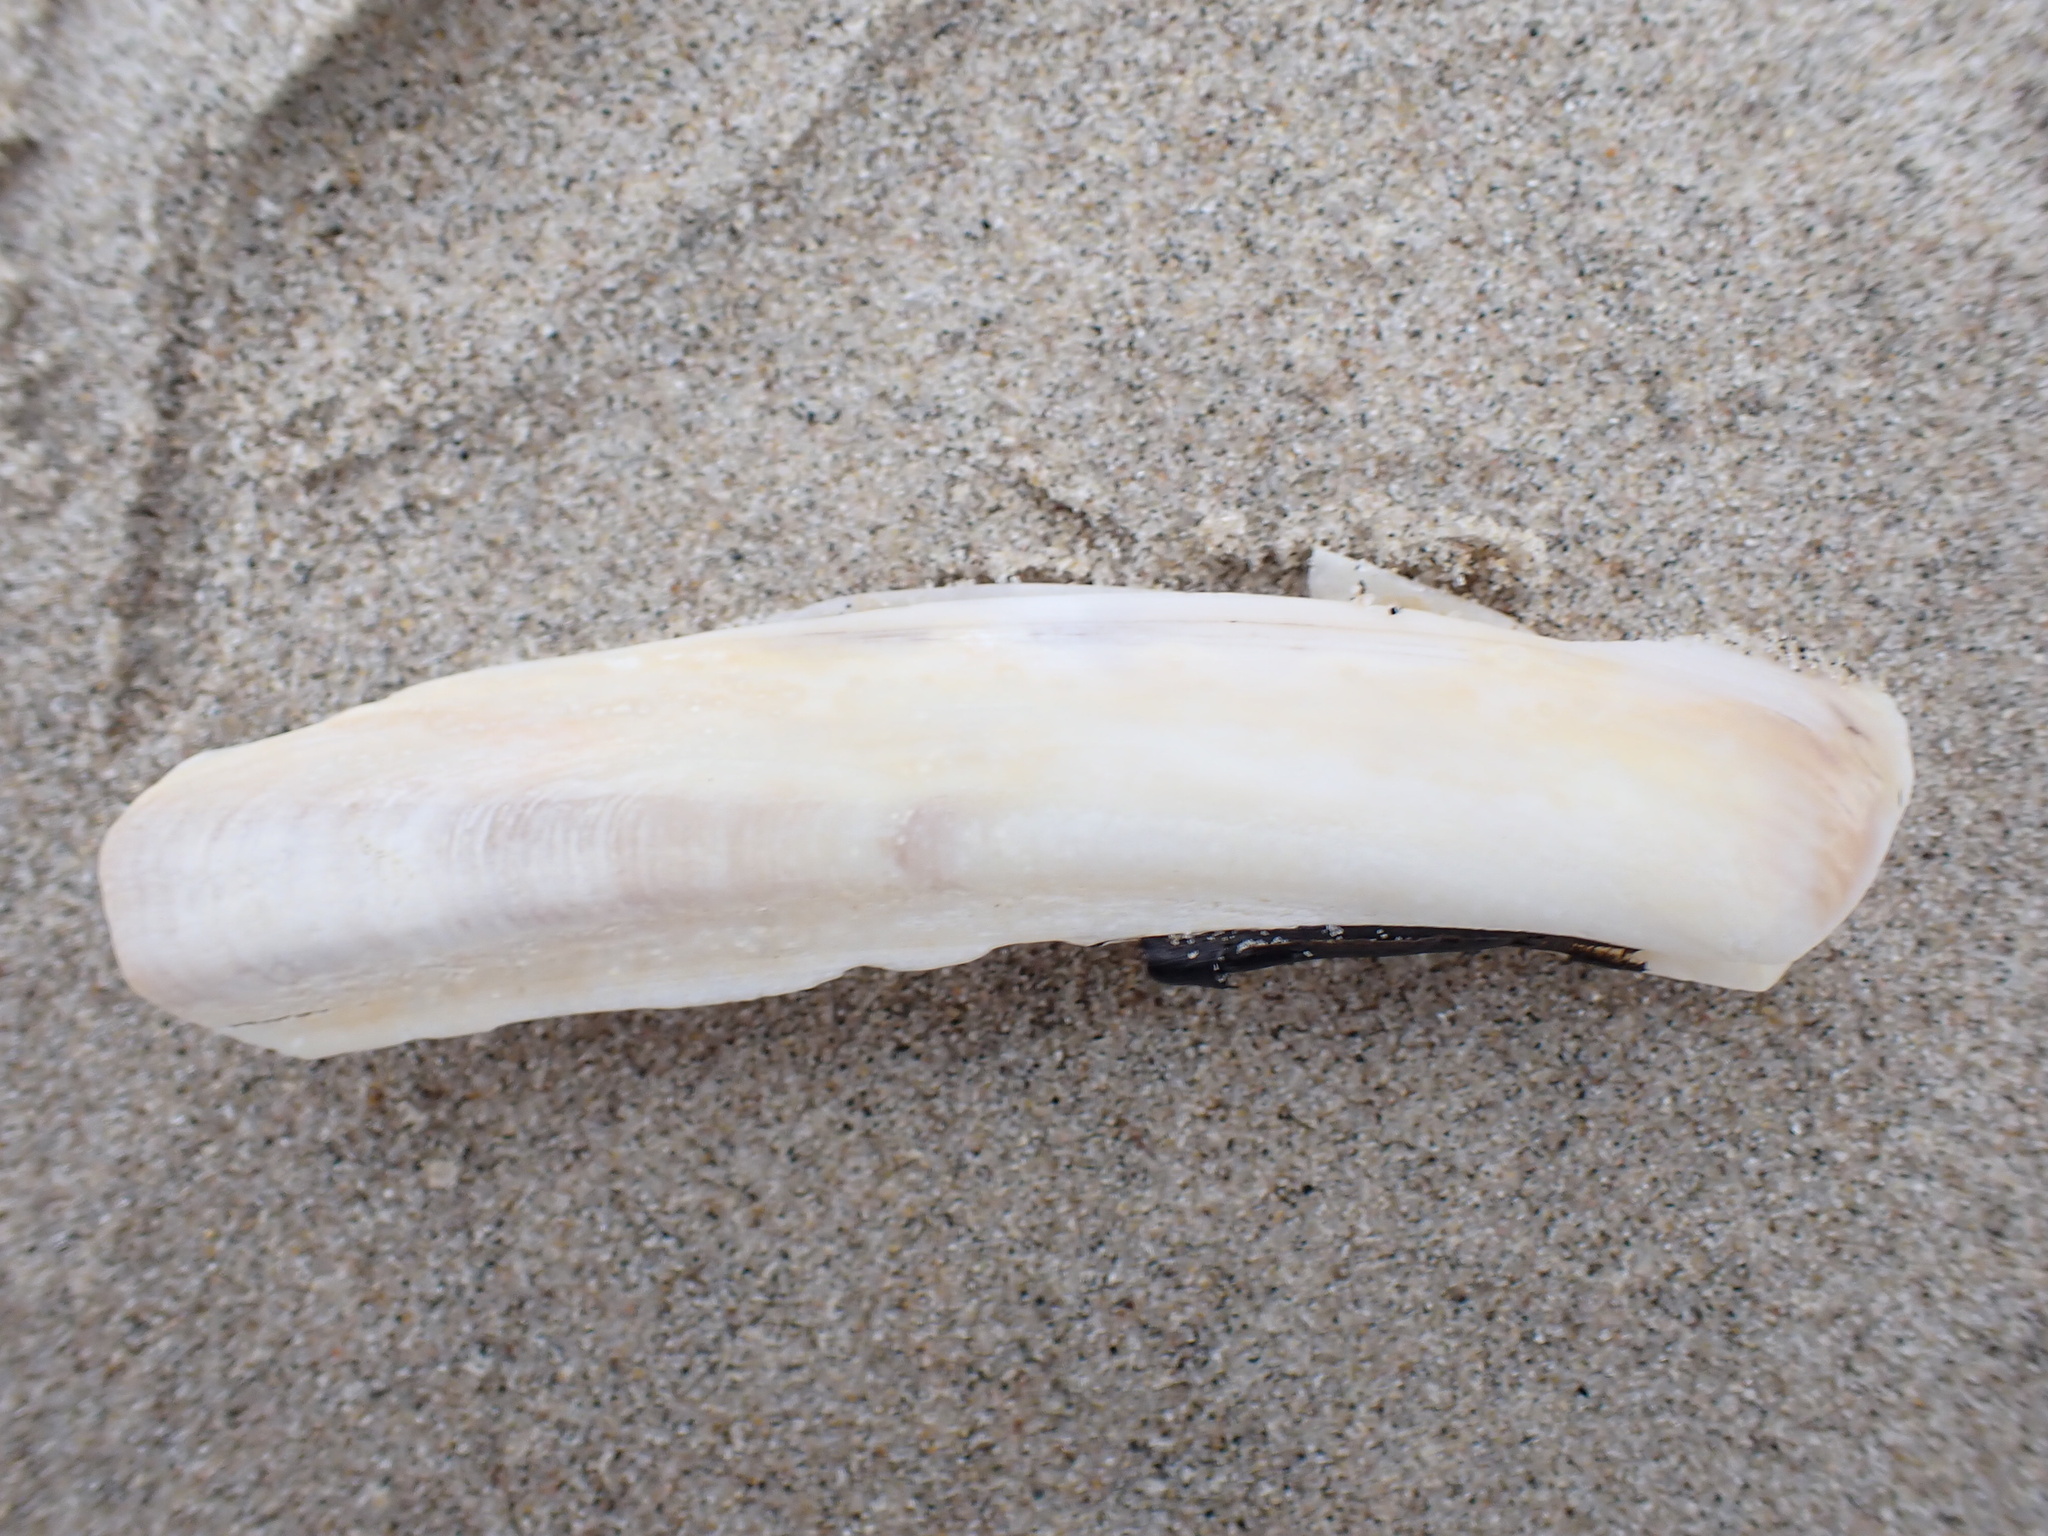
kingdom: Animalia
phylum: Mollusca
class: Bivalvia
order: Adapedonta
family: Pharidae
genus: Ensis
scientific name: Ensis leei
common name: American jack knife clam
